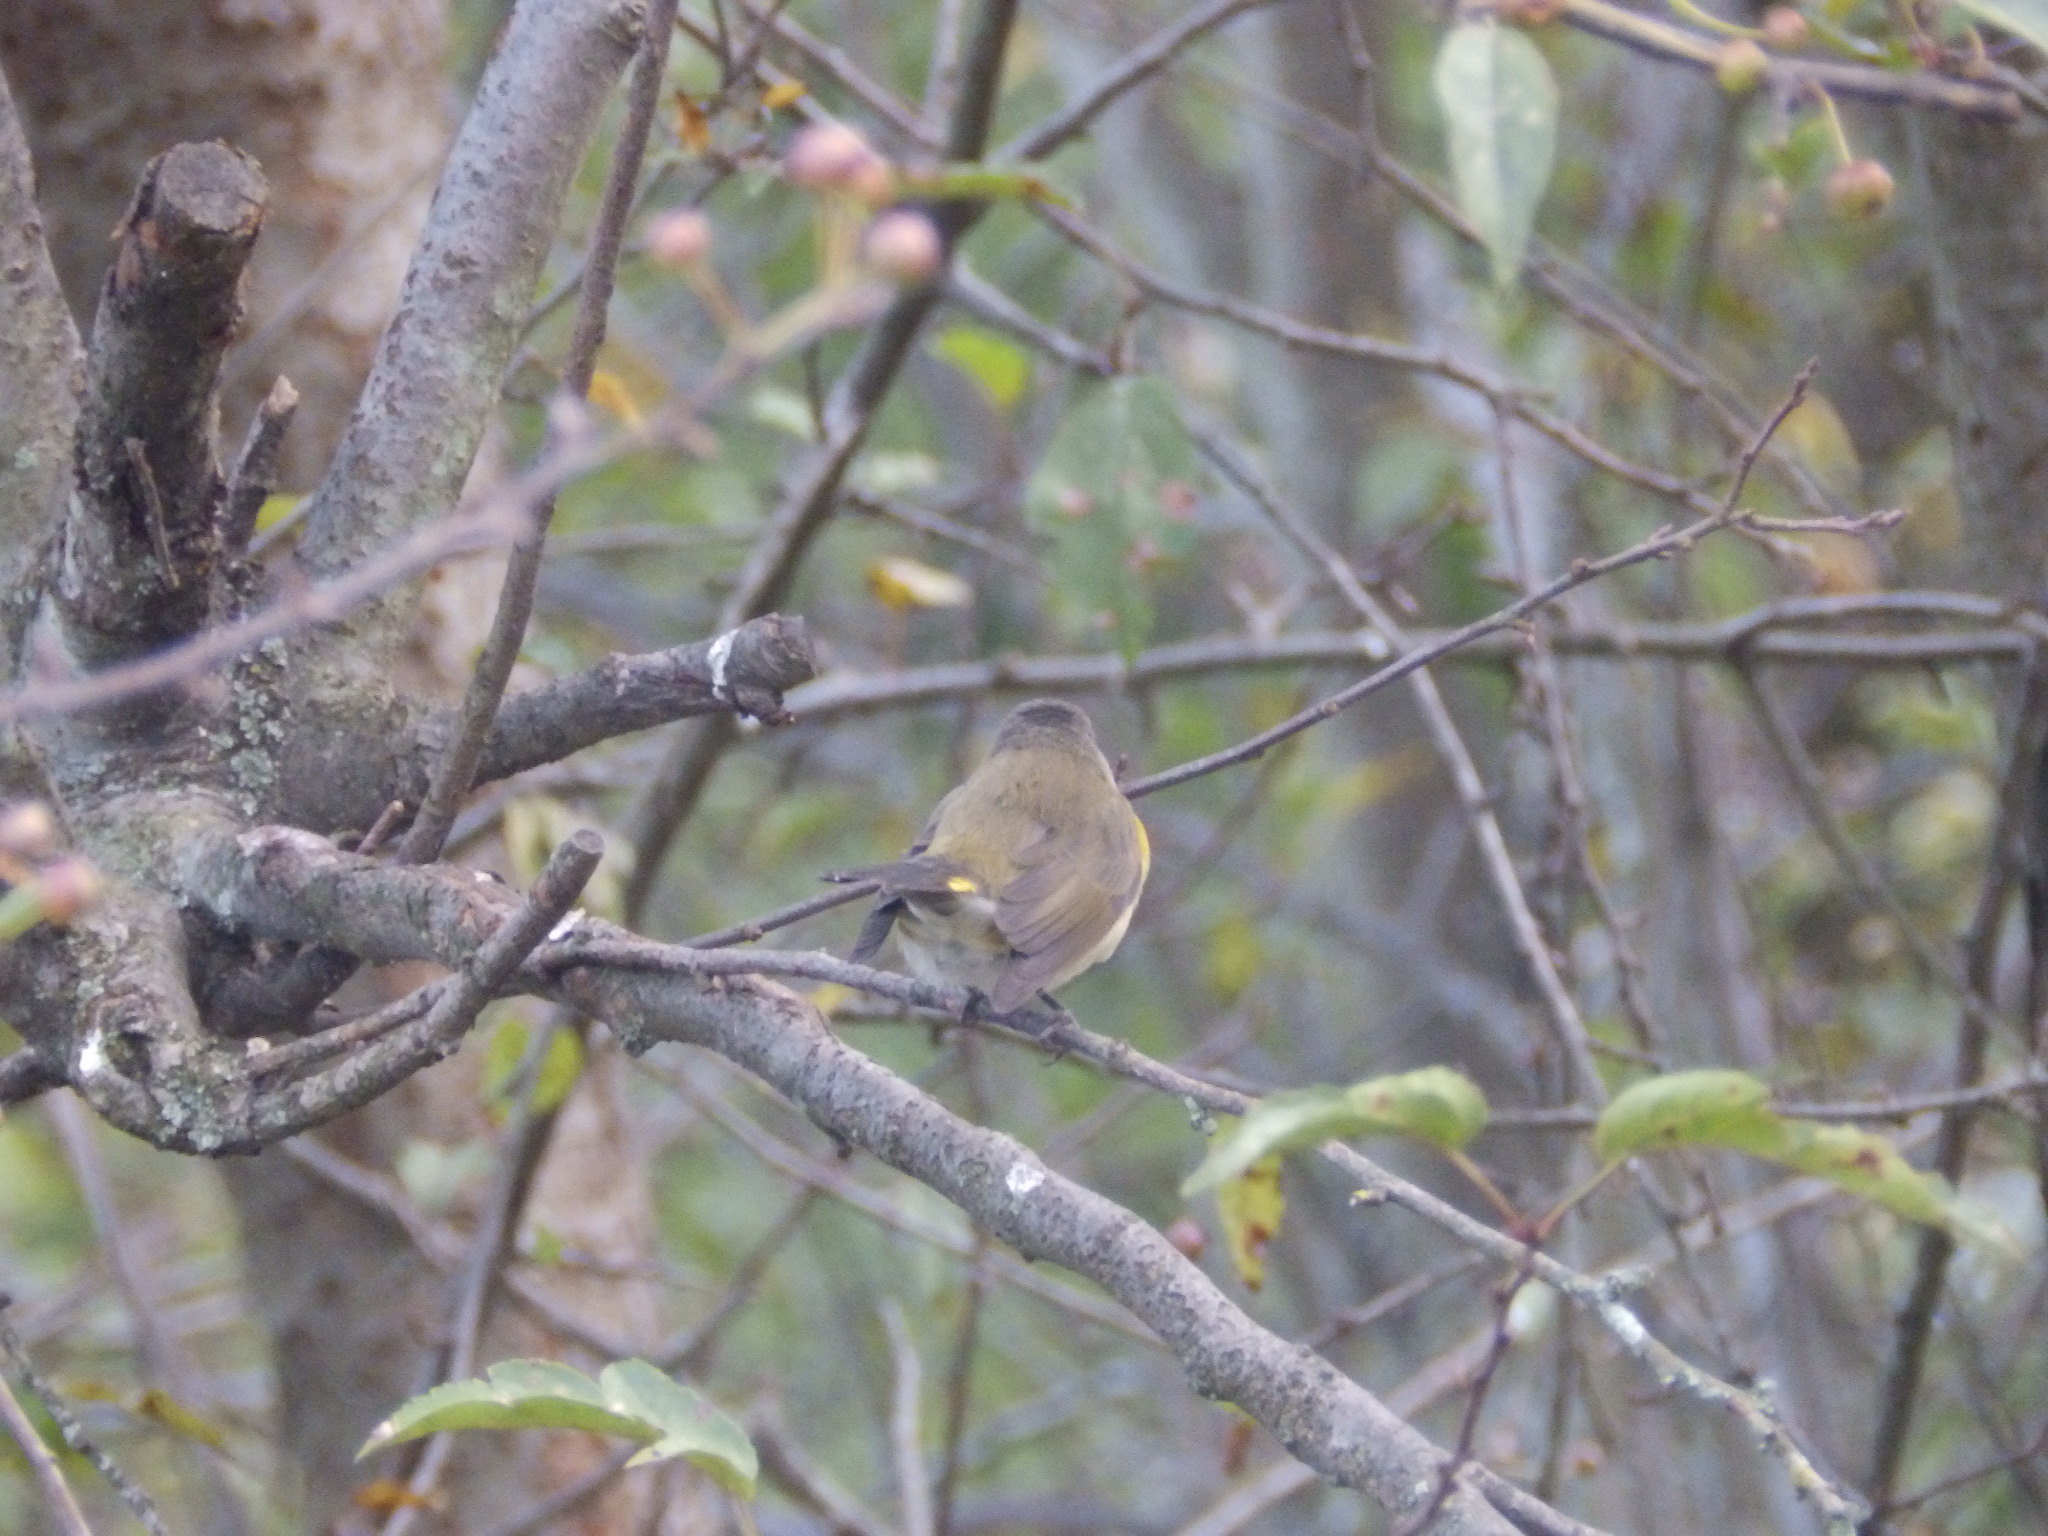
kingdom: Animalia
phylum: Chordata
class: Aves
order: Passeriformes
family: Parulidae
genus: Setophaga
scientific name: Setophaga ruticilla
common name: American redstart
